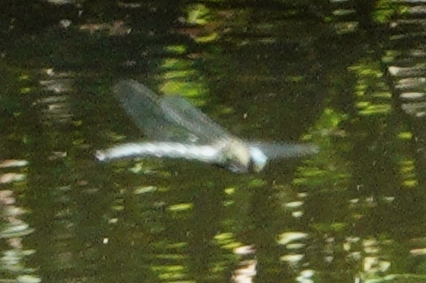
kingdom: Animalia
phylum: Arthropoda
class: Insecta
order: Odonata
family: Aeshnidae
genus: Nasiaeschna
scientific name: Nasiaeschna pentacantha
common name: Cyrano darner
